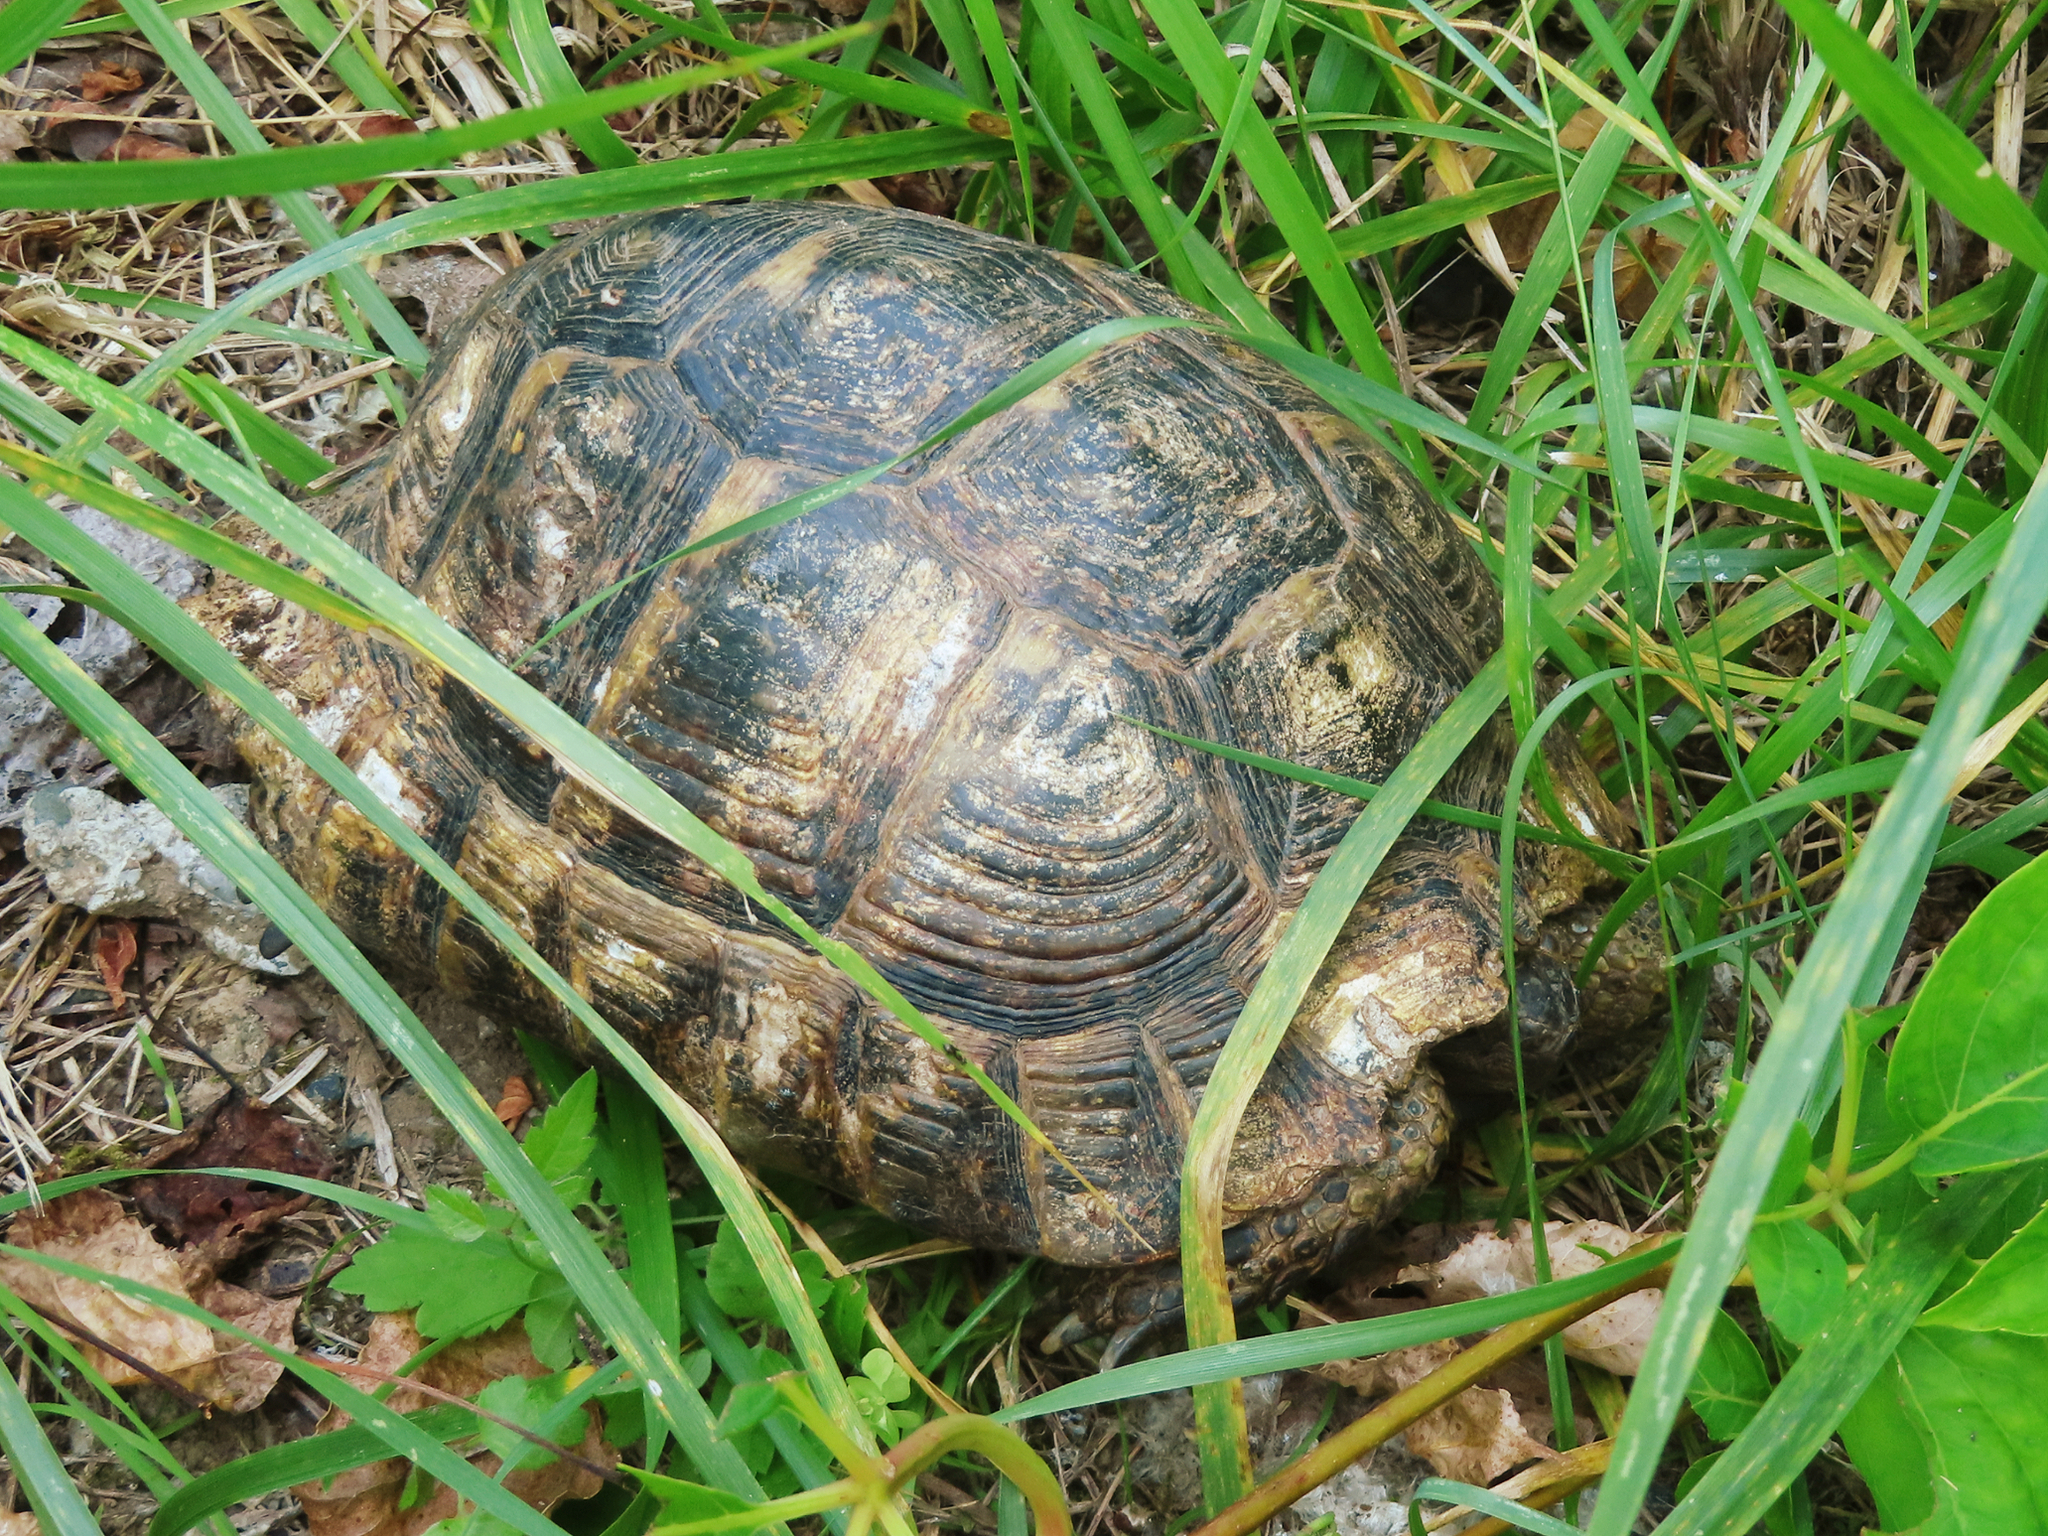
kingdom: Animalia
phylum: Chordata
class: Testudines
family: Testudinidae
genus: Testudo
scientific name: Testudo graeca
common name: Common tortoise
